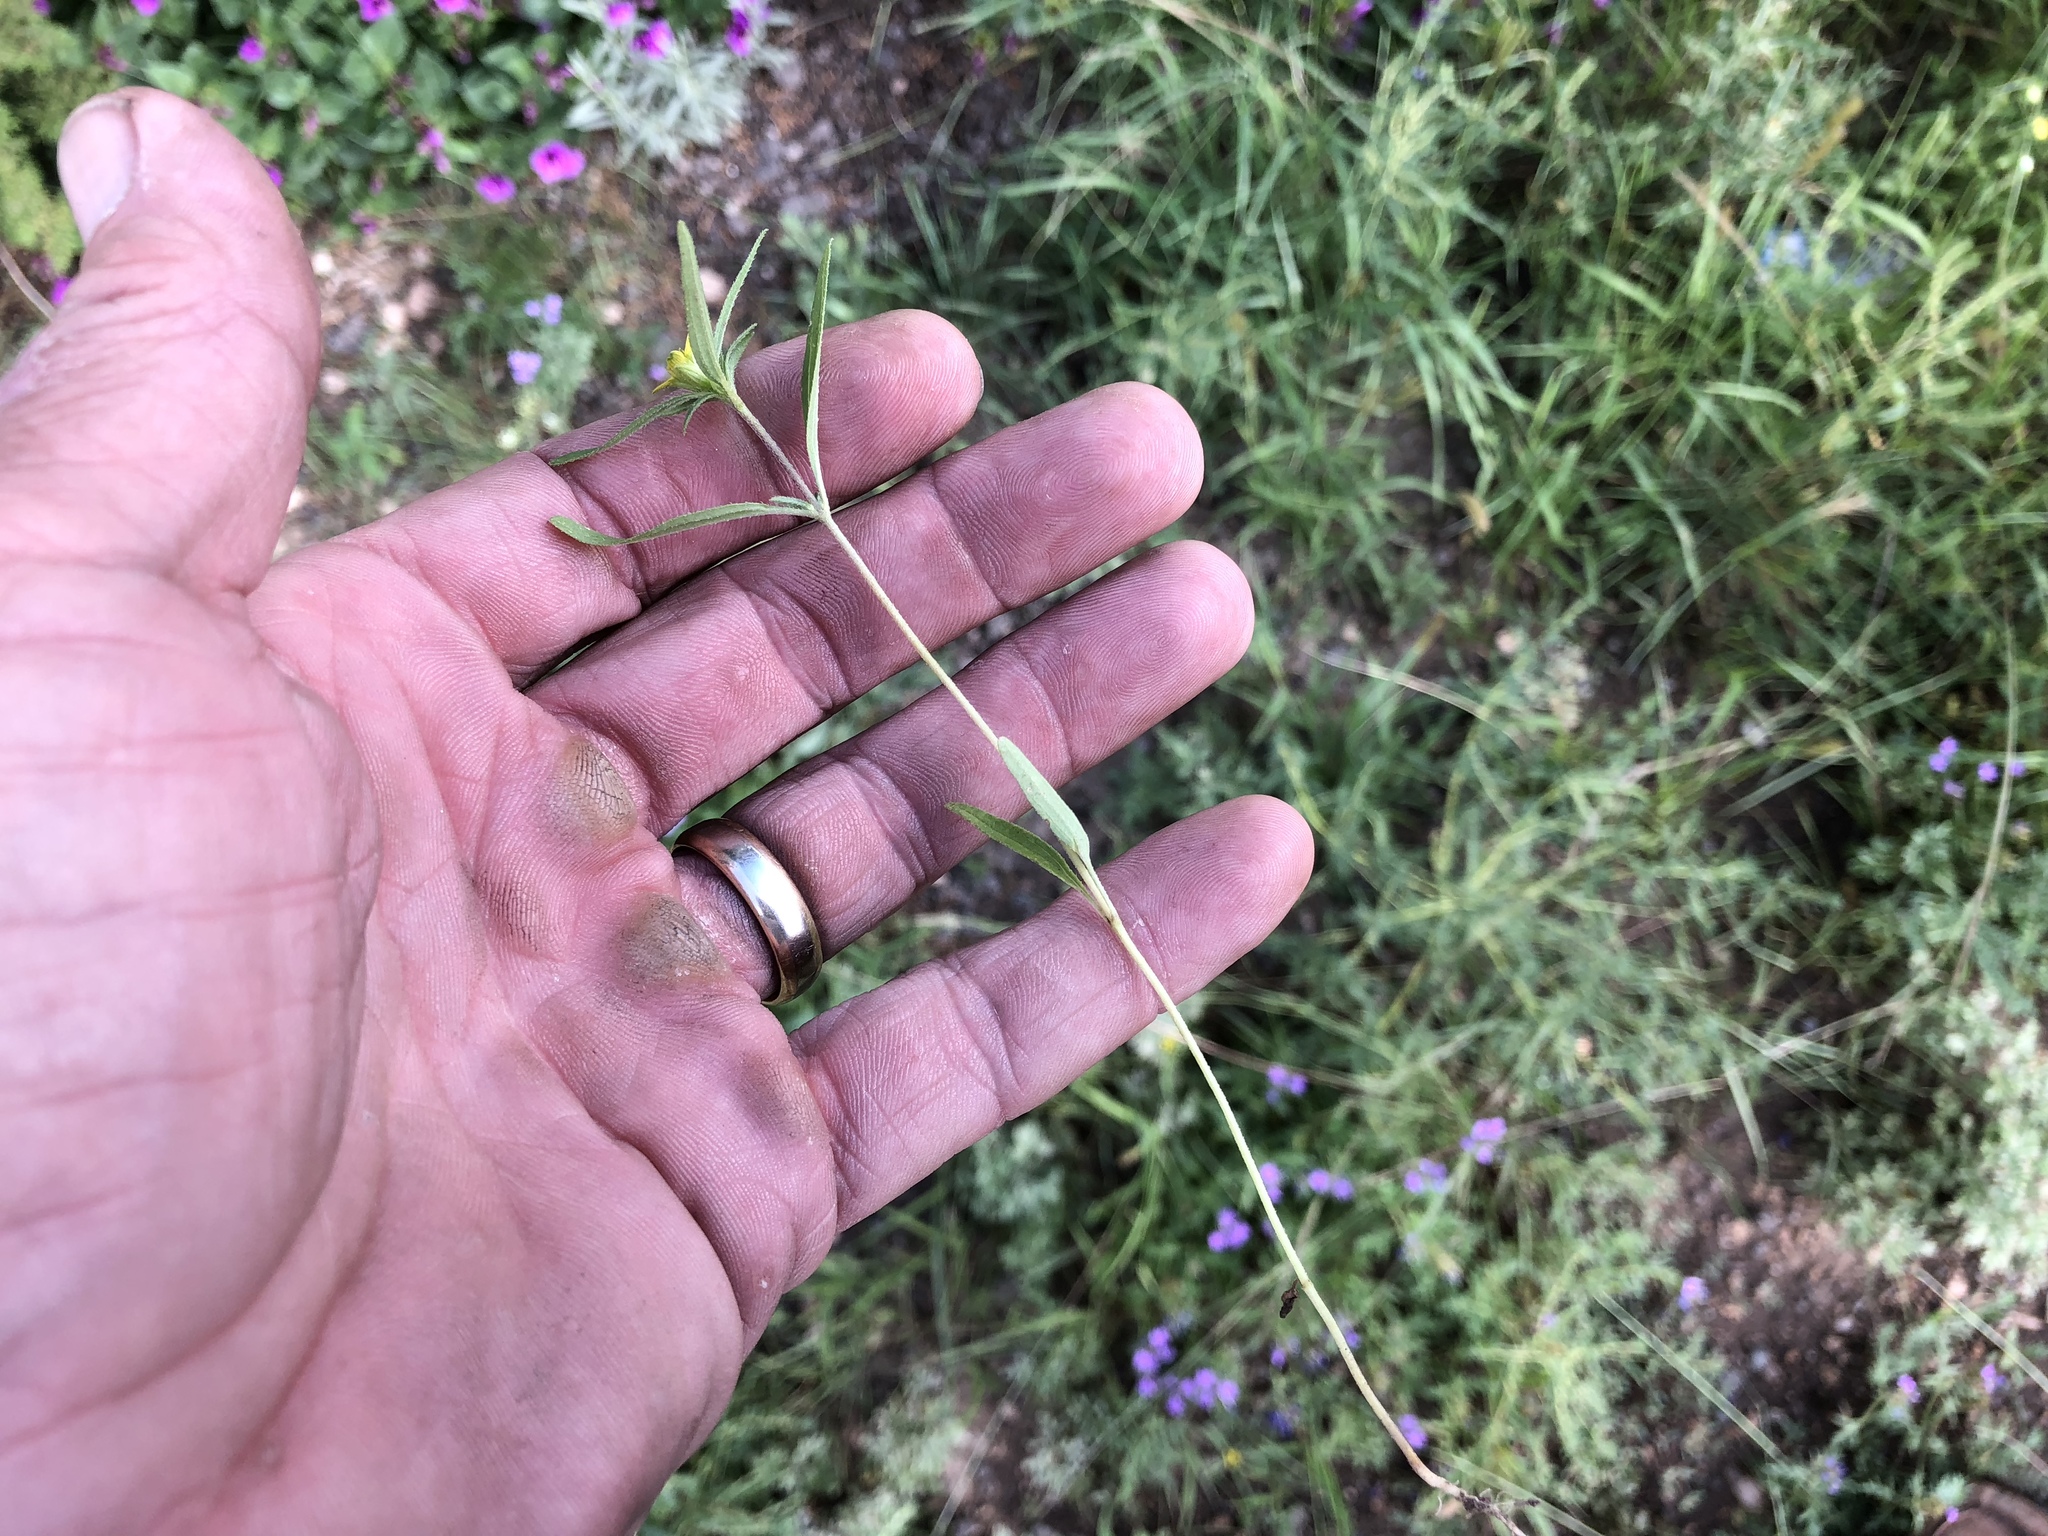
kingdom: Plantae
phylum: Tracheophyta
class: Magnoliopsida
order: Asterales
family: Asteraceae
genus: Sanvitalia
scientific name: Sanvitalia abertii
